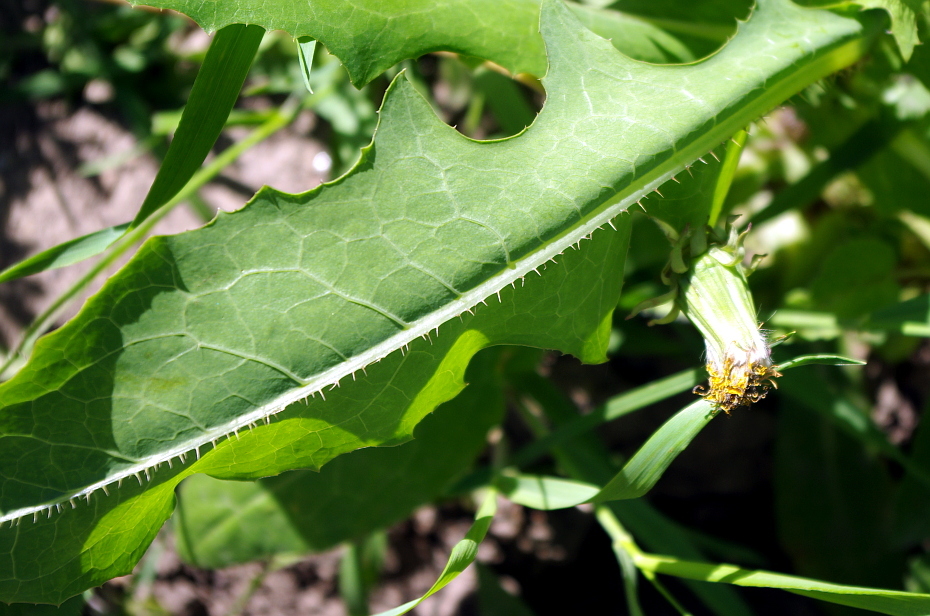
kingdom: Plantae
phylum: Tracheophyta
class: Magnoliopsida
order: Asterales
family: Asteraceae
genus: Lactuca
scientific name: Lactuca serriola
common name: Prickly lettuce
